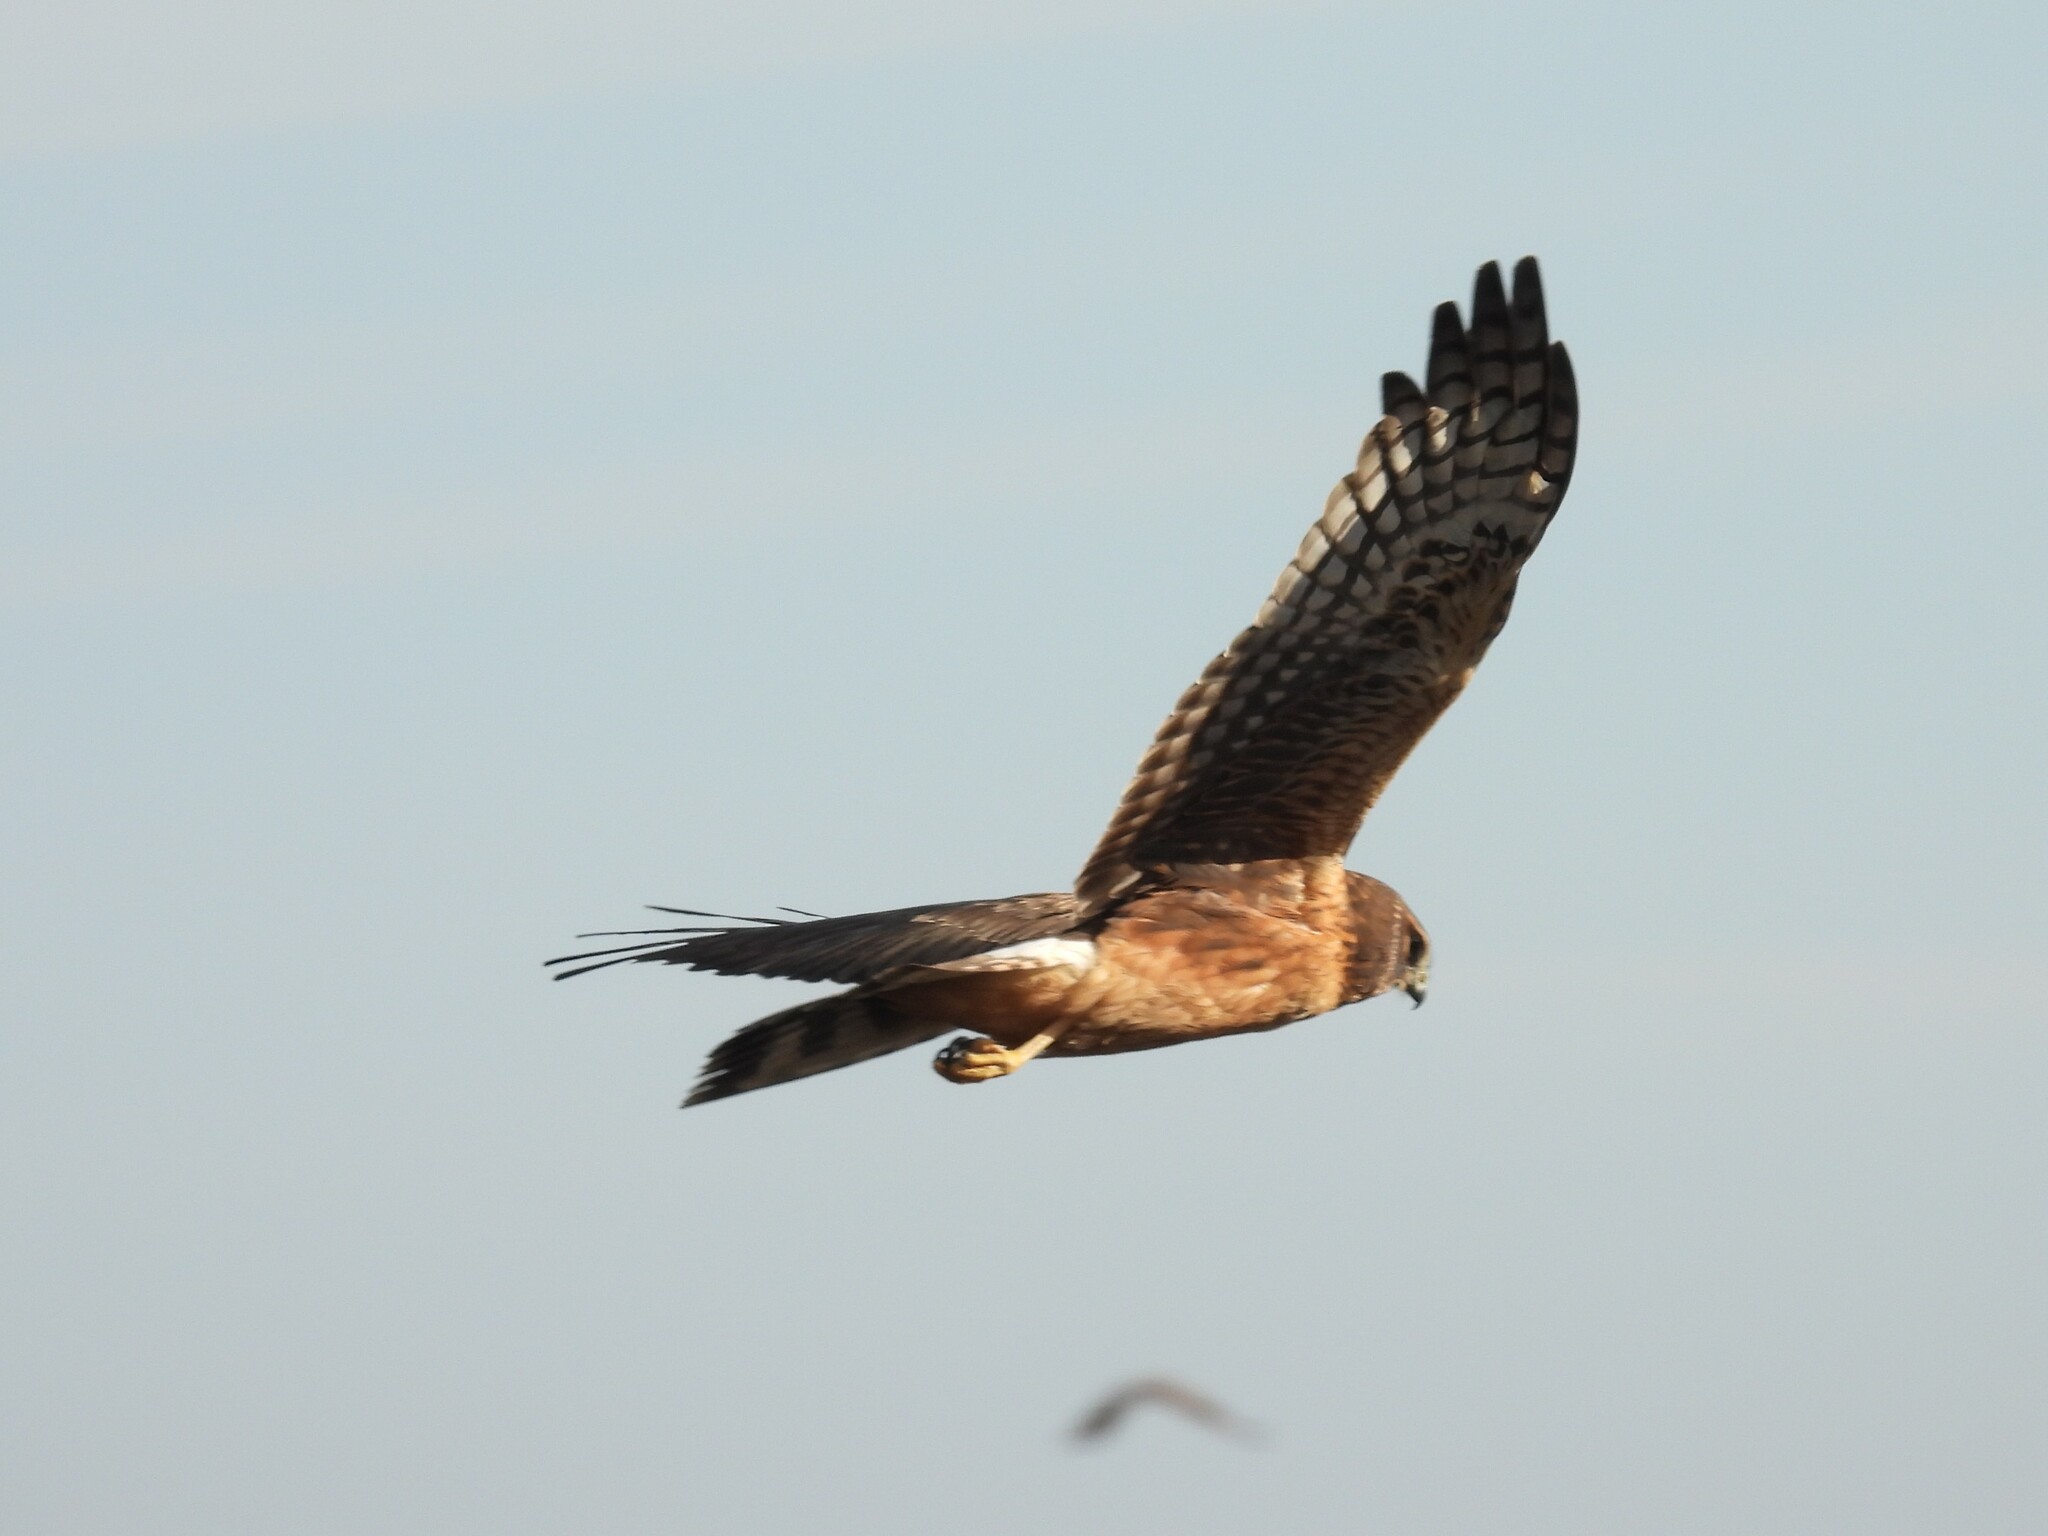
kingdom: Animalia
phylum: Chordata
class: Aves
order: Accipitriformes
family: Accipitridae
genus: Circus
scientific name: Circus cyaneus
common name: Hen harrier
